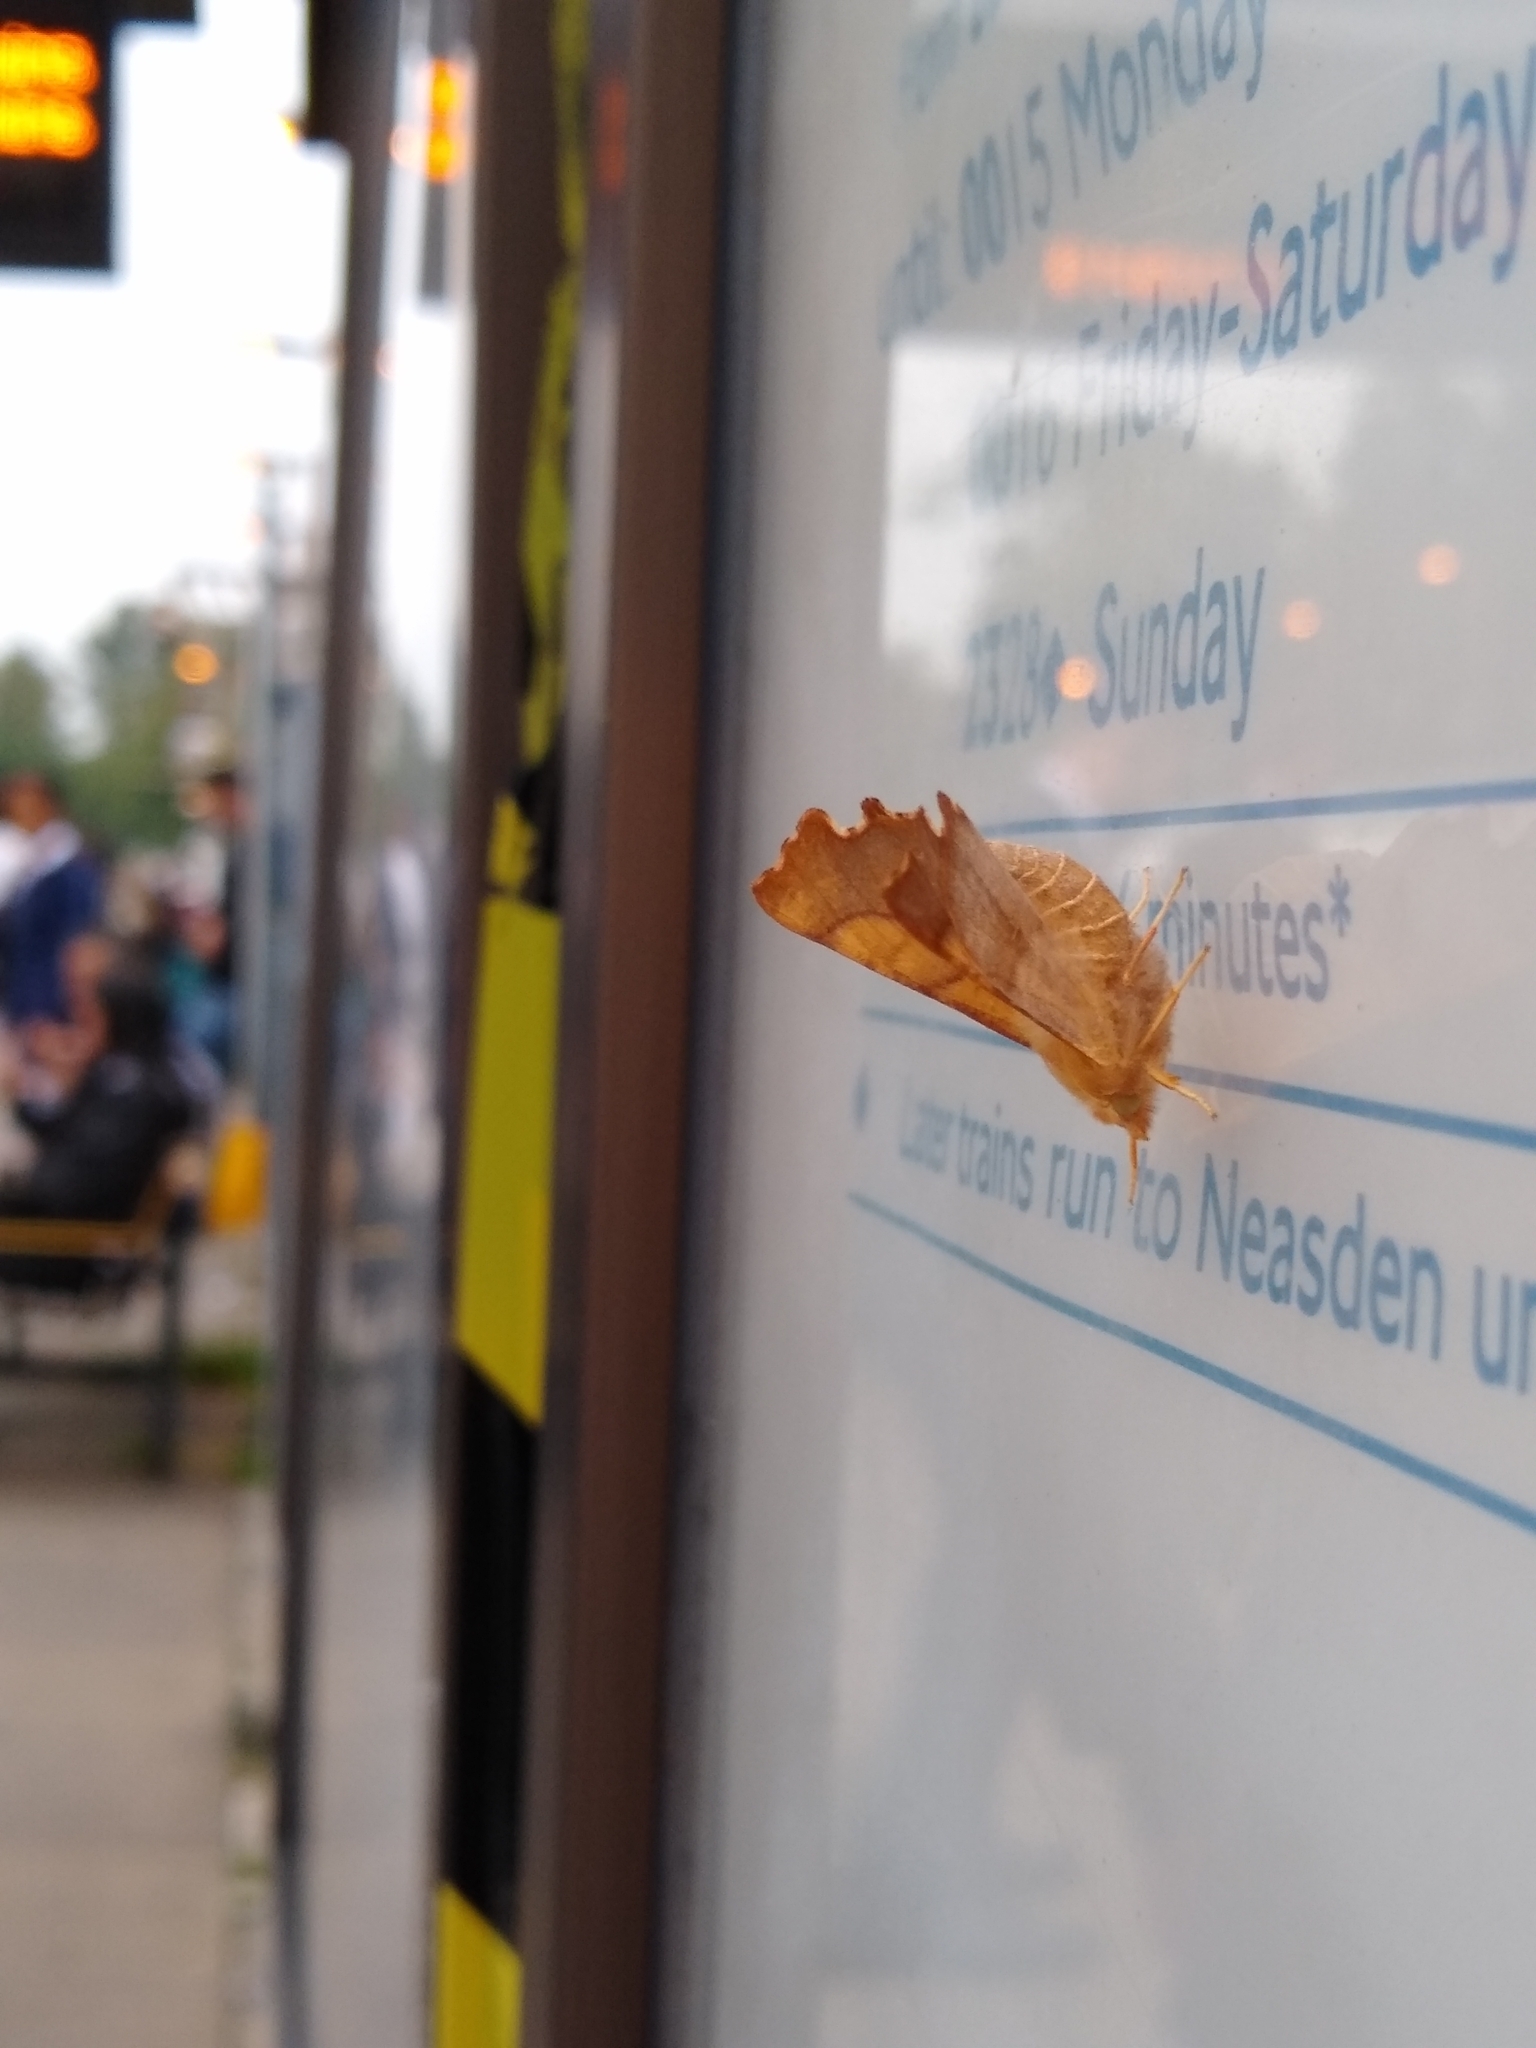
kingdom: Animalia
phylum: Arthropoda
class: Insecta
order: Lepidoptera
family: Geometridae
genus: Ennomos
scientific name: Ennomos fuscantaria
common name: Dusky thorn
